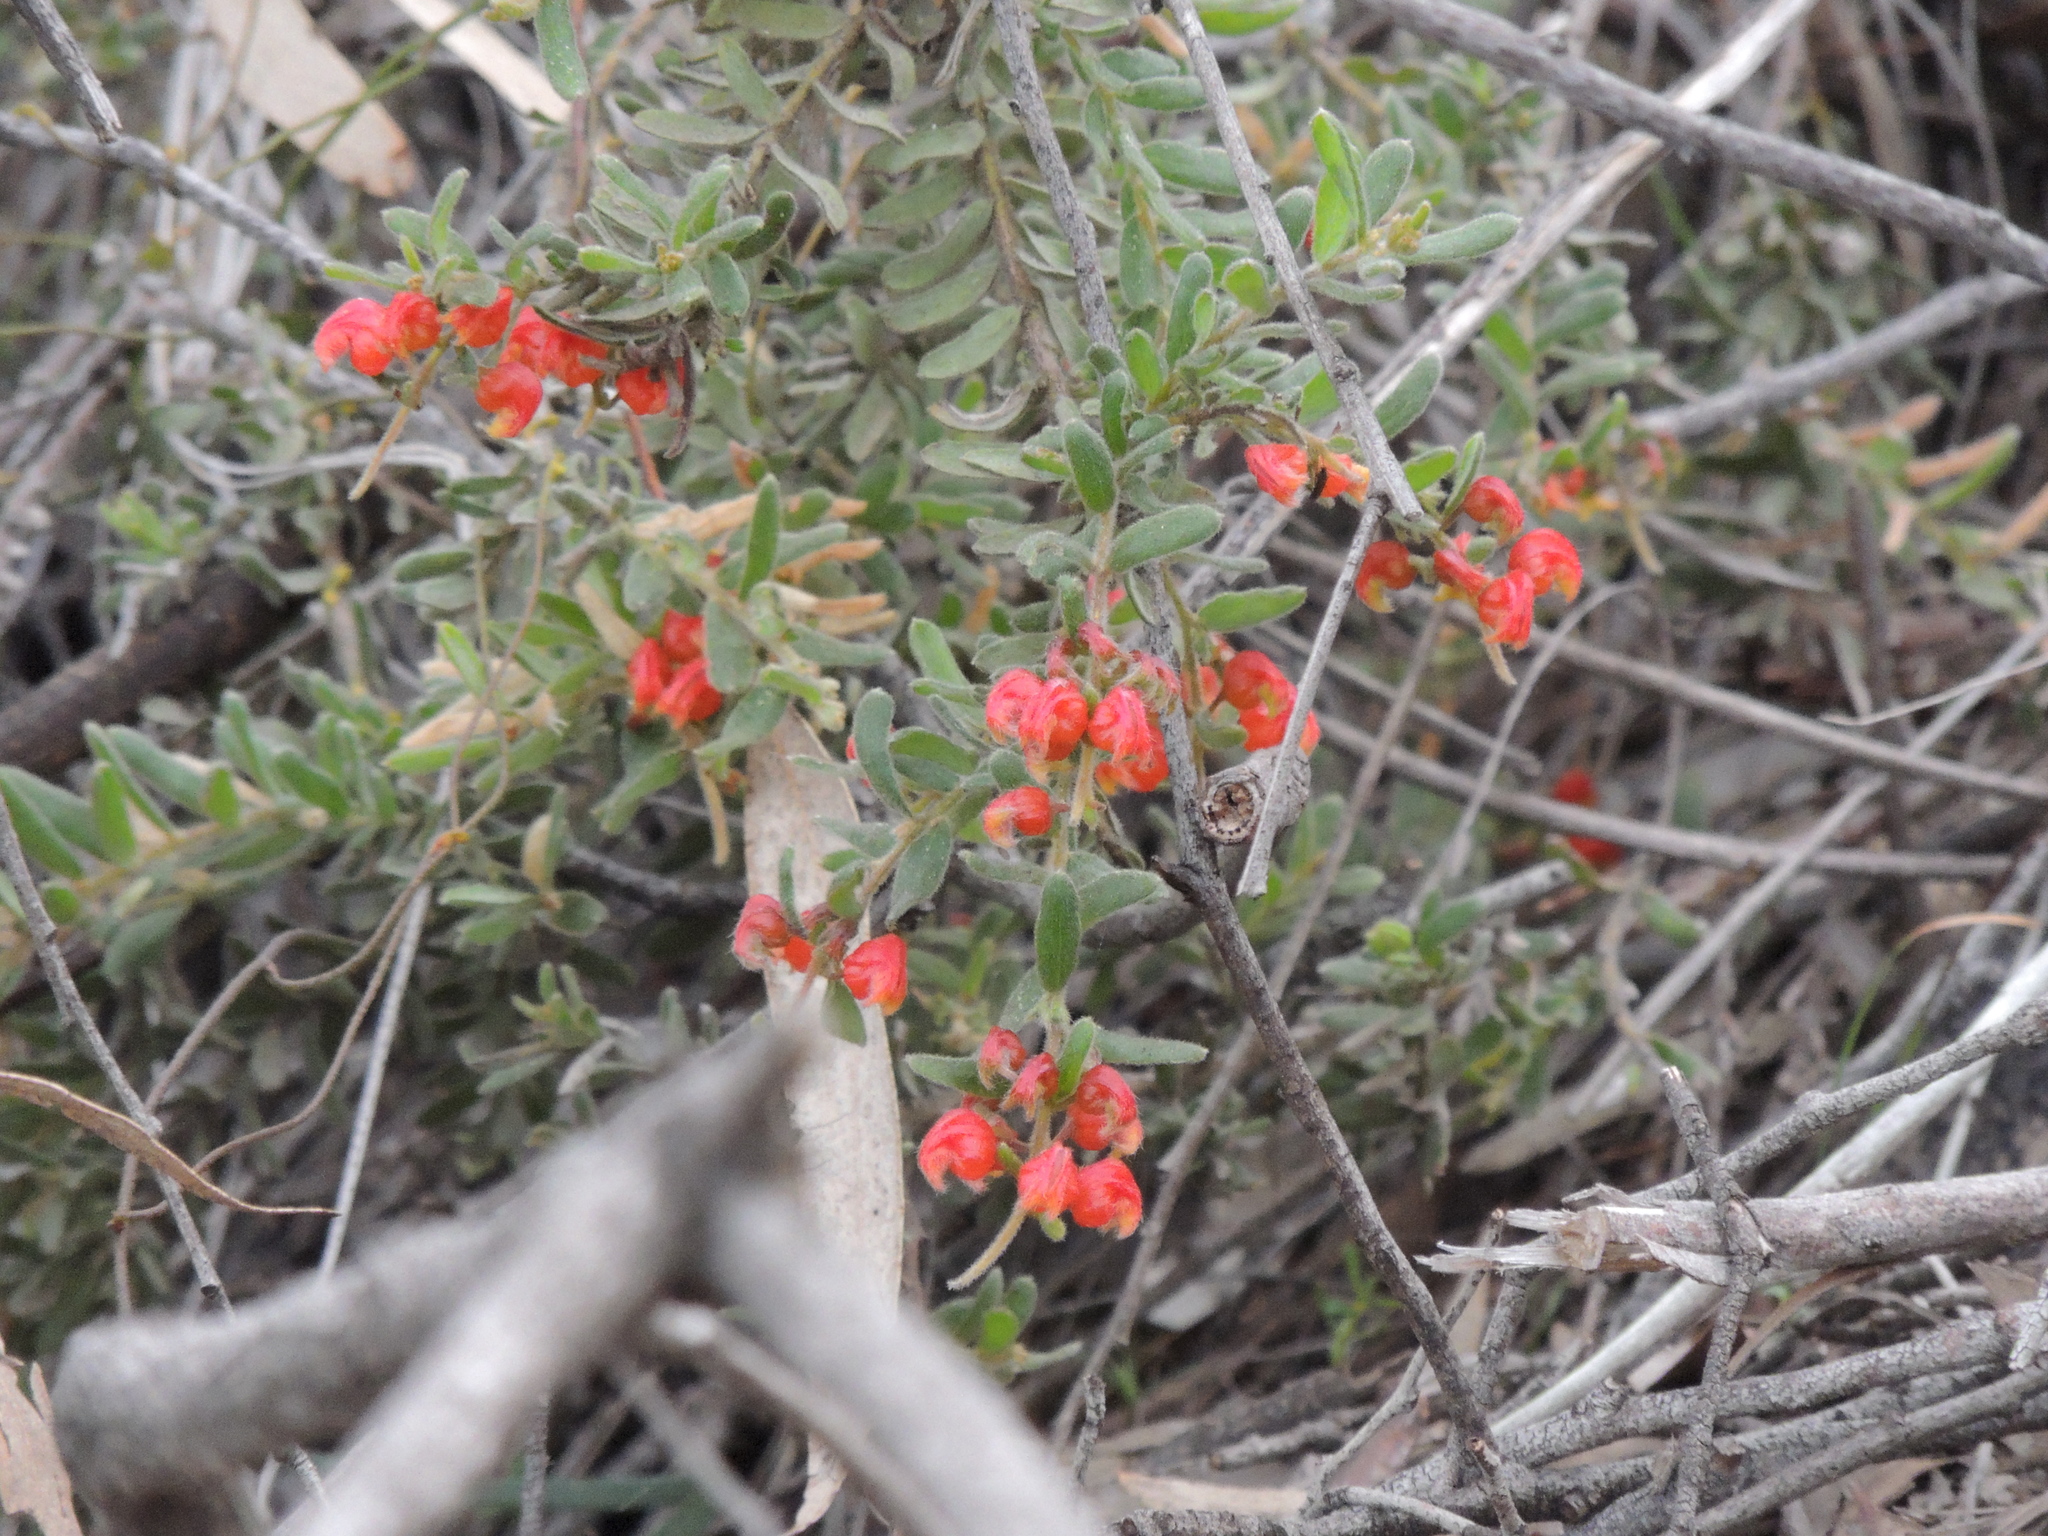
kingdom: Plantae
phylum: Tracheophyta
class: Magnoliopsida
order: Proteales
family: Proteaceae
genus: Grevillea
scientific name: Grevillea alpina
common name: Catclaws grevillea
